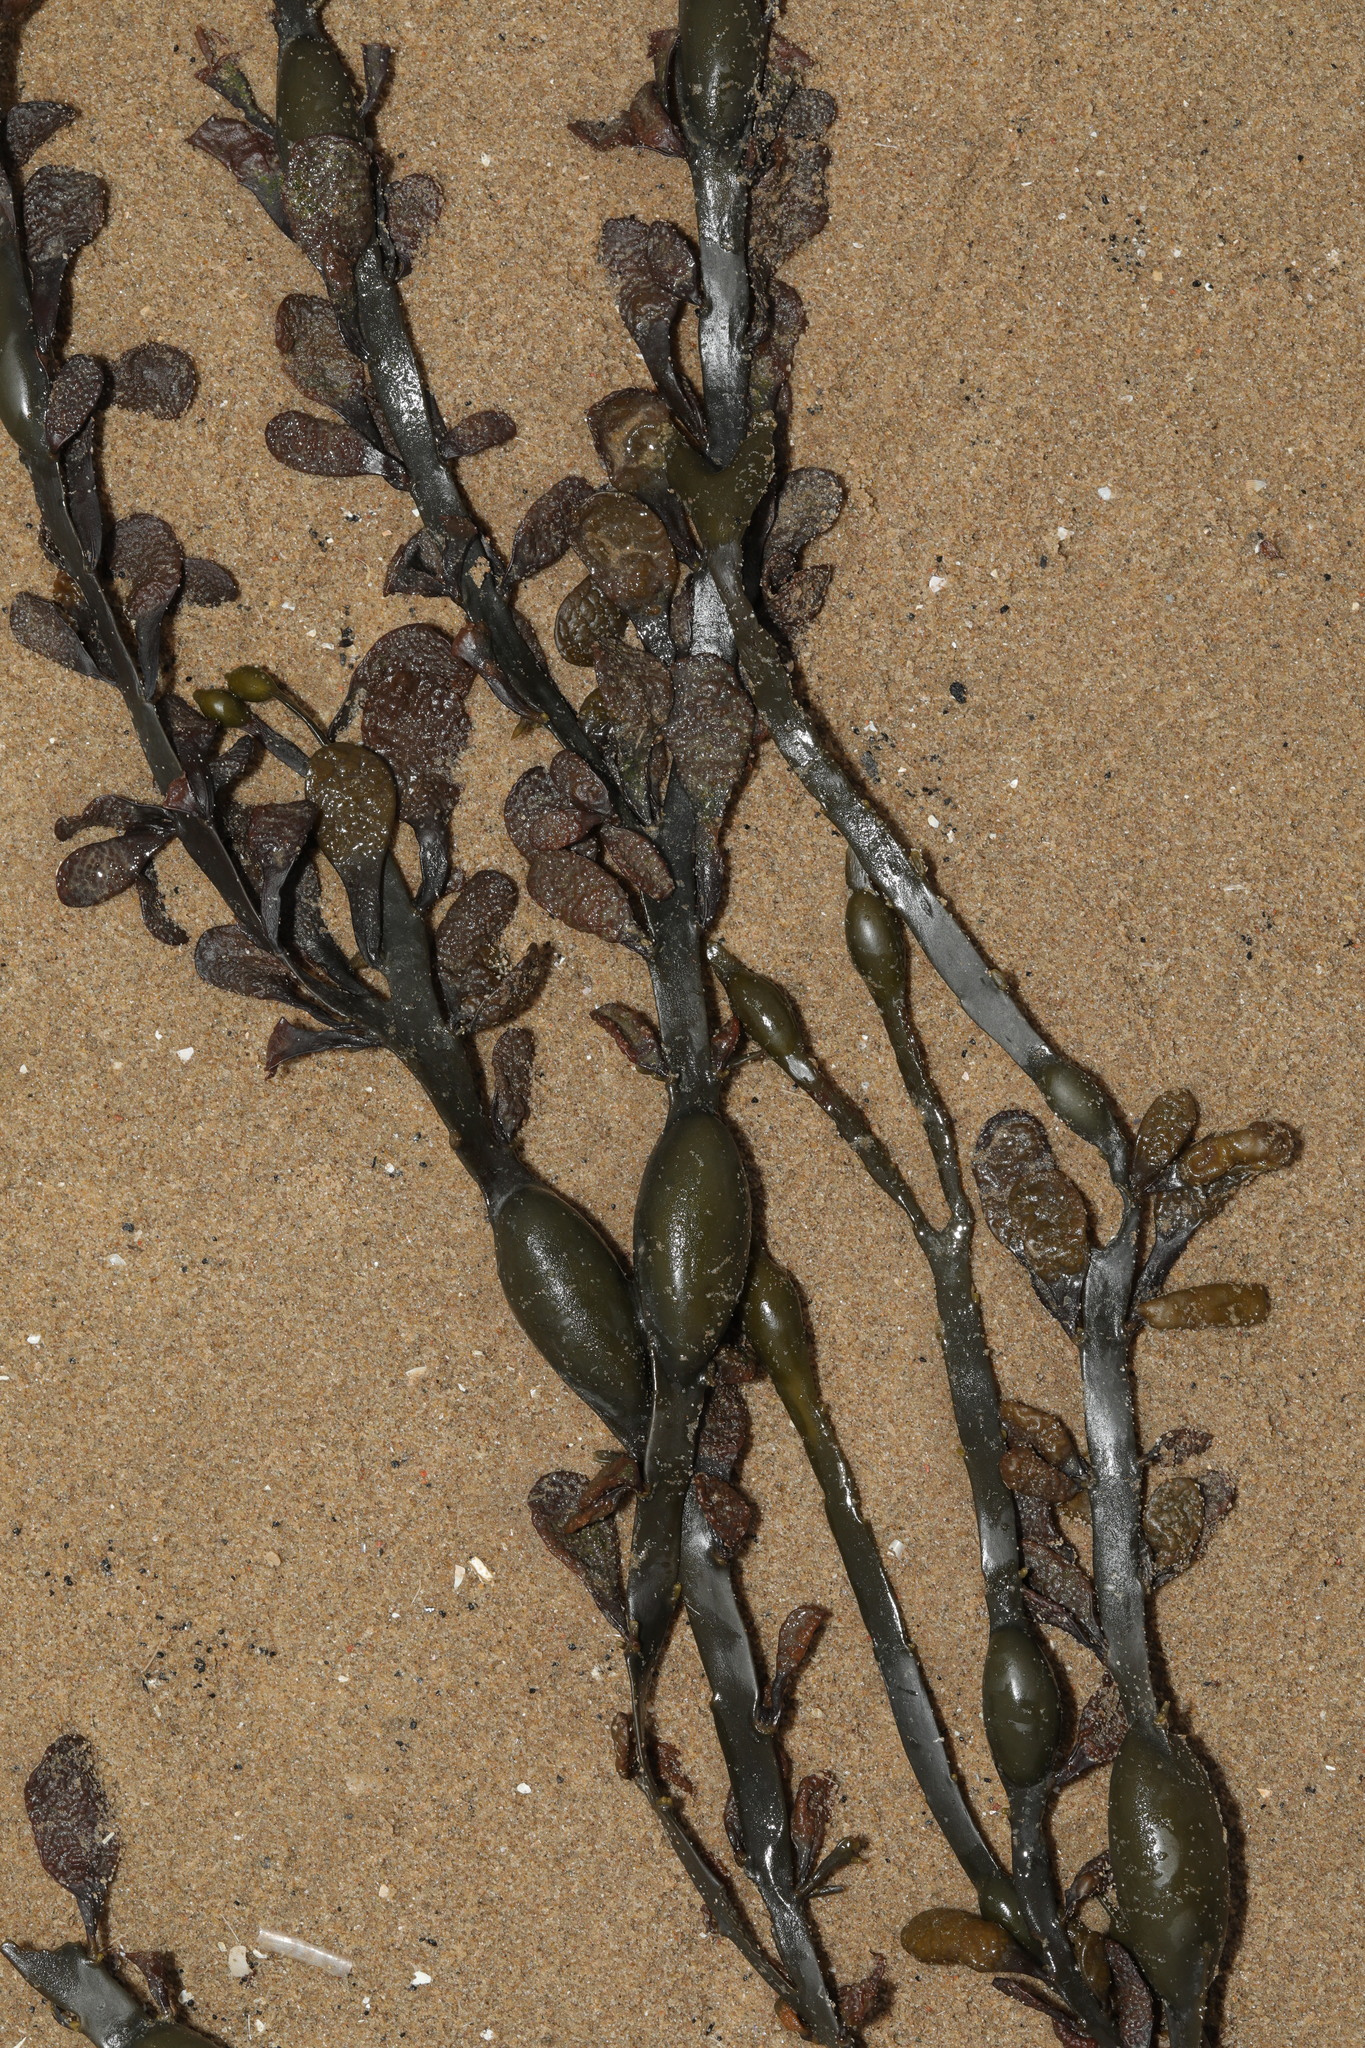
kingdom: Chromista
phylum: Ochrophyta
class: Phaeophyceae
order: Fucales
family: Fucaceae
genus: Ascophyllum
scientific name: Ascophyllum nodosum
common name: Knotted wrack
